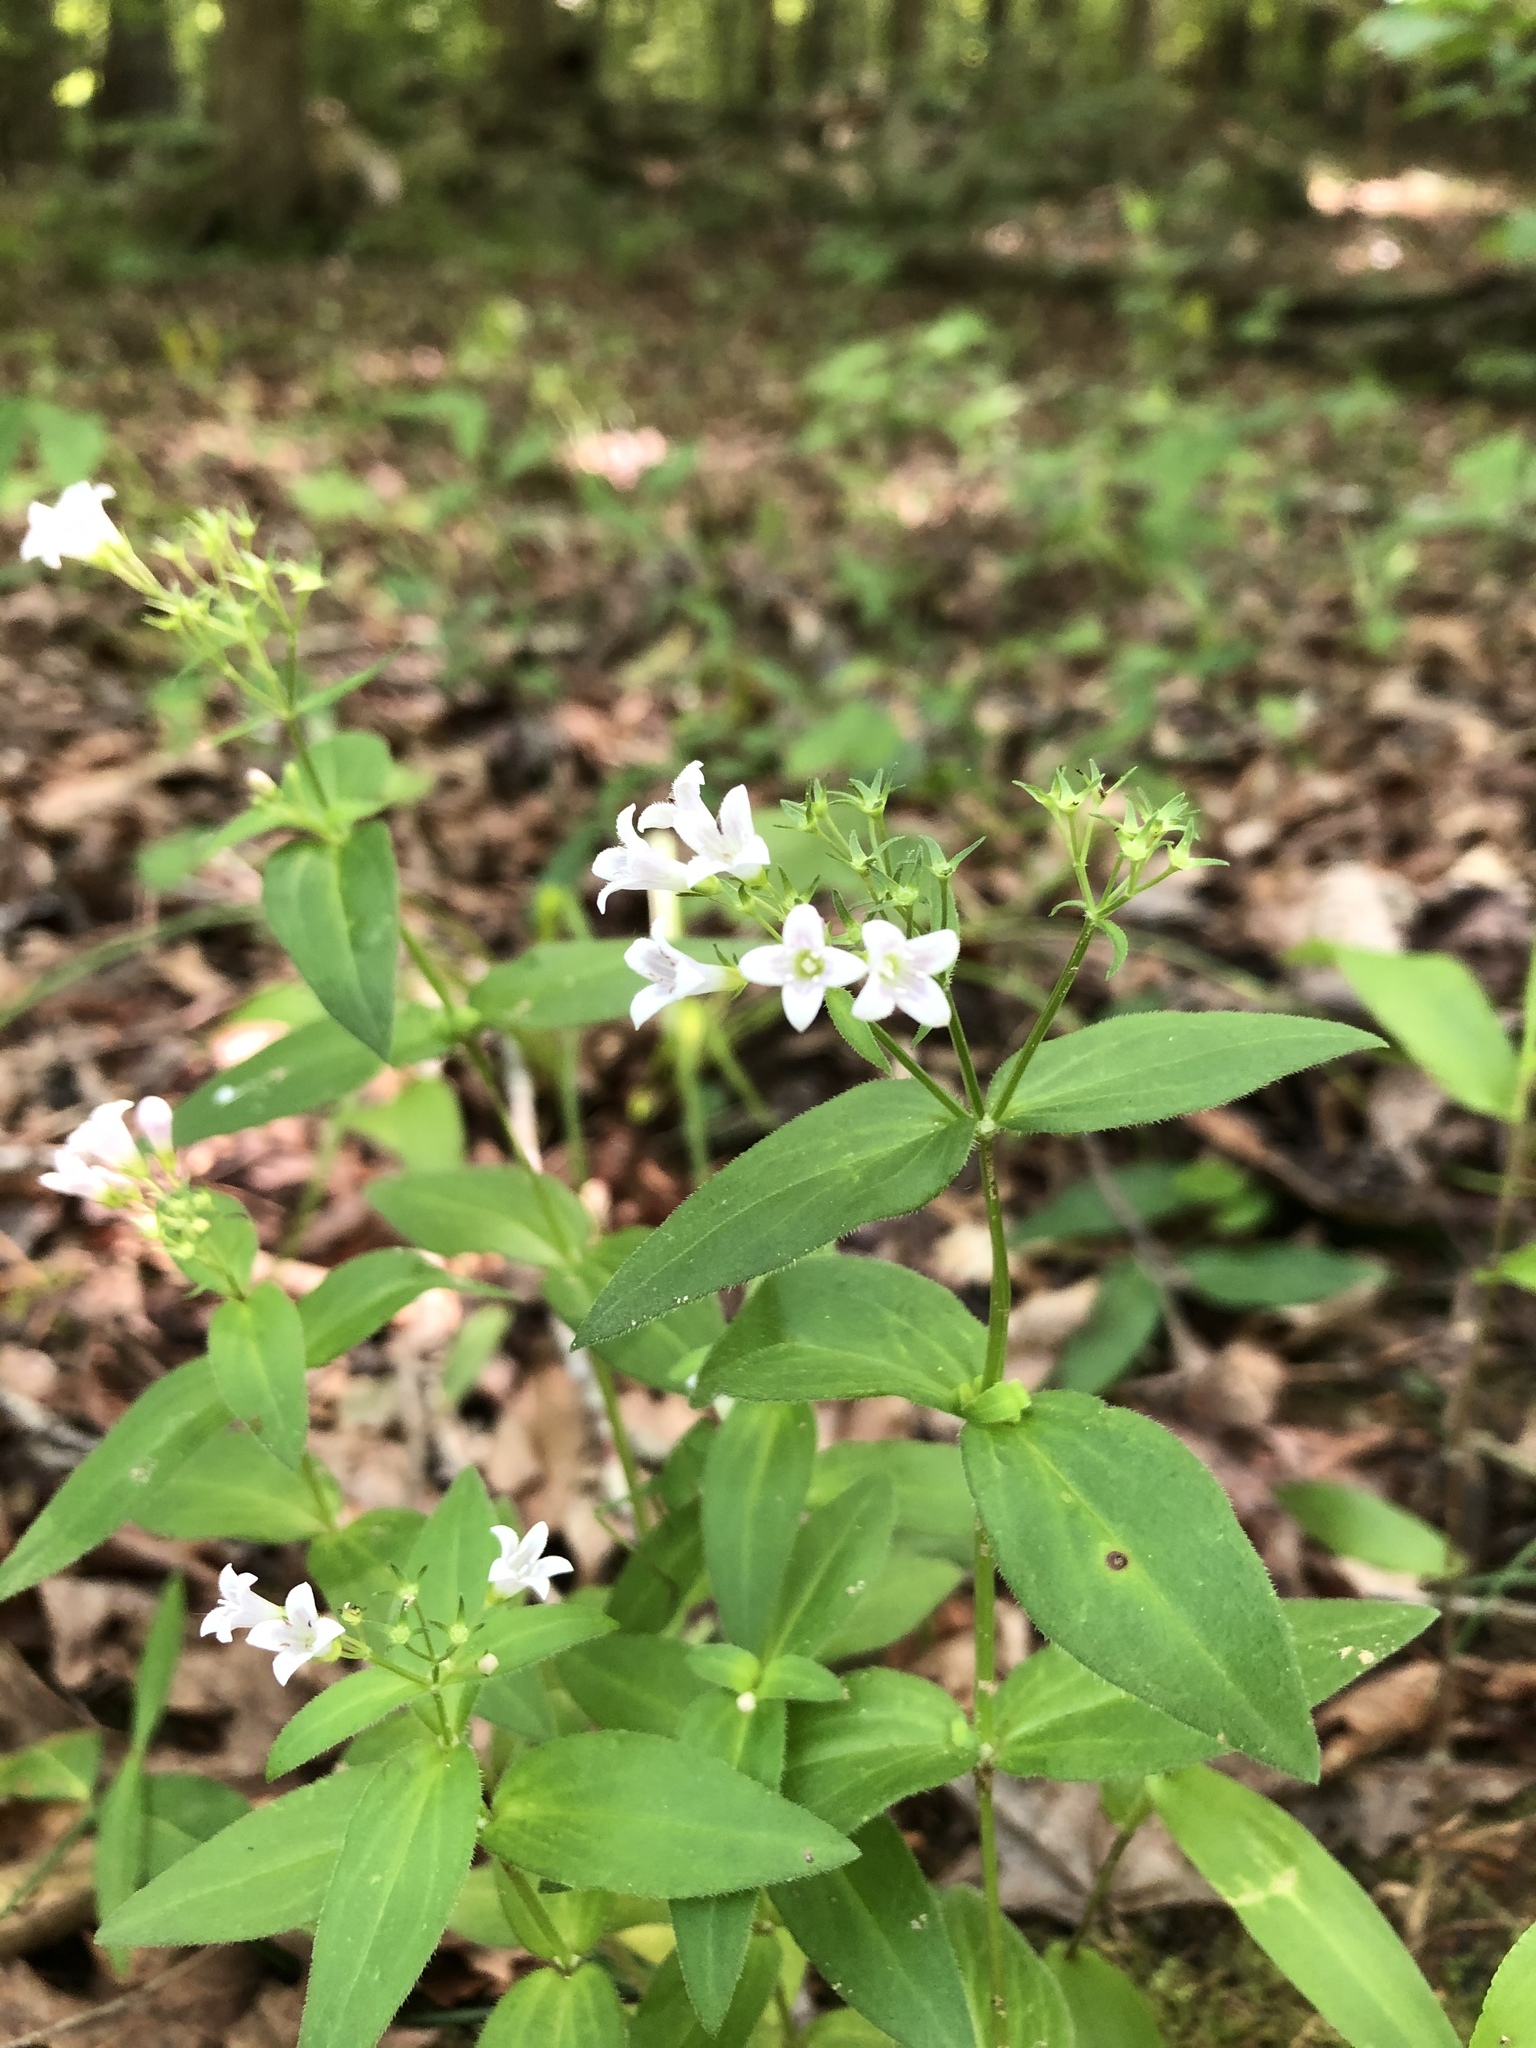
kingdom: Plantae
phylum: Tracheophyta
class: Magnoliopsida
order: Gentianales
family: Rubiaceae
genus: Houstonia
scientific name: Houstonia purpurea
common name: Summer bluet
